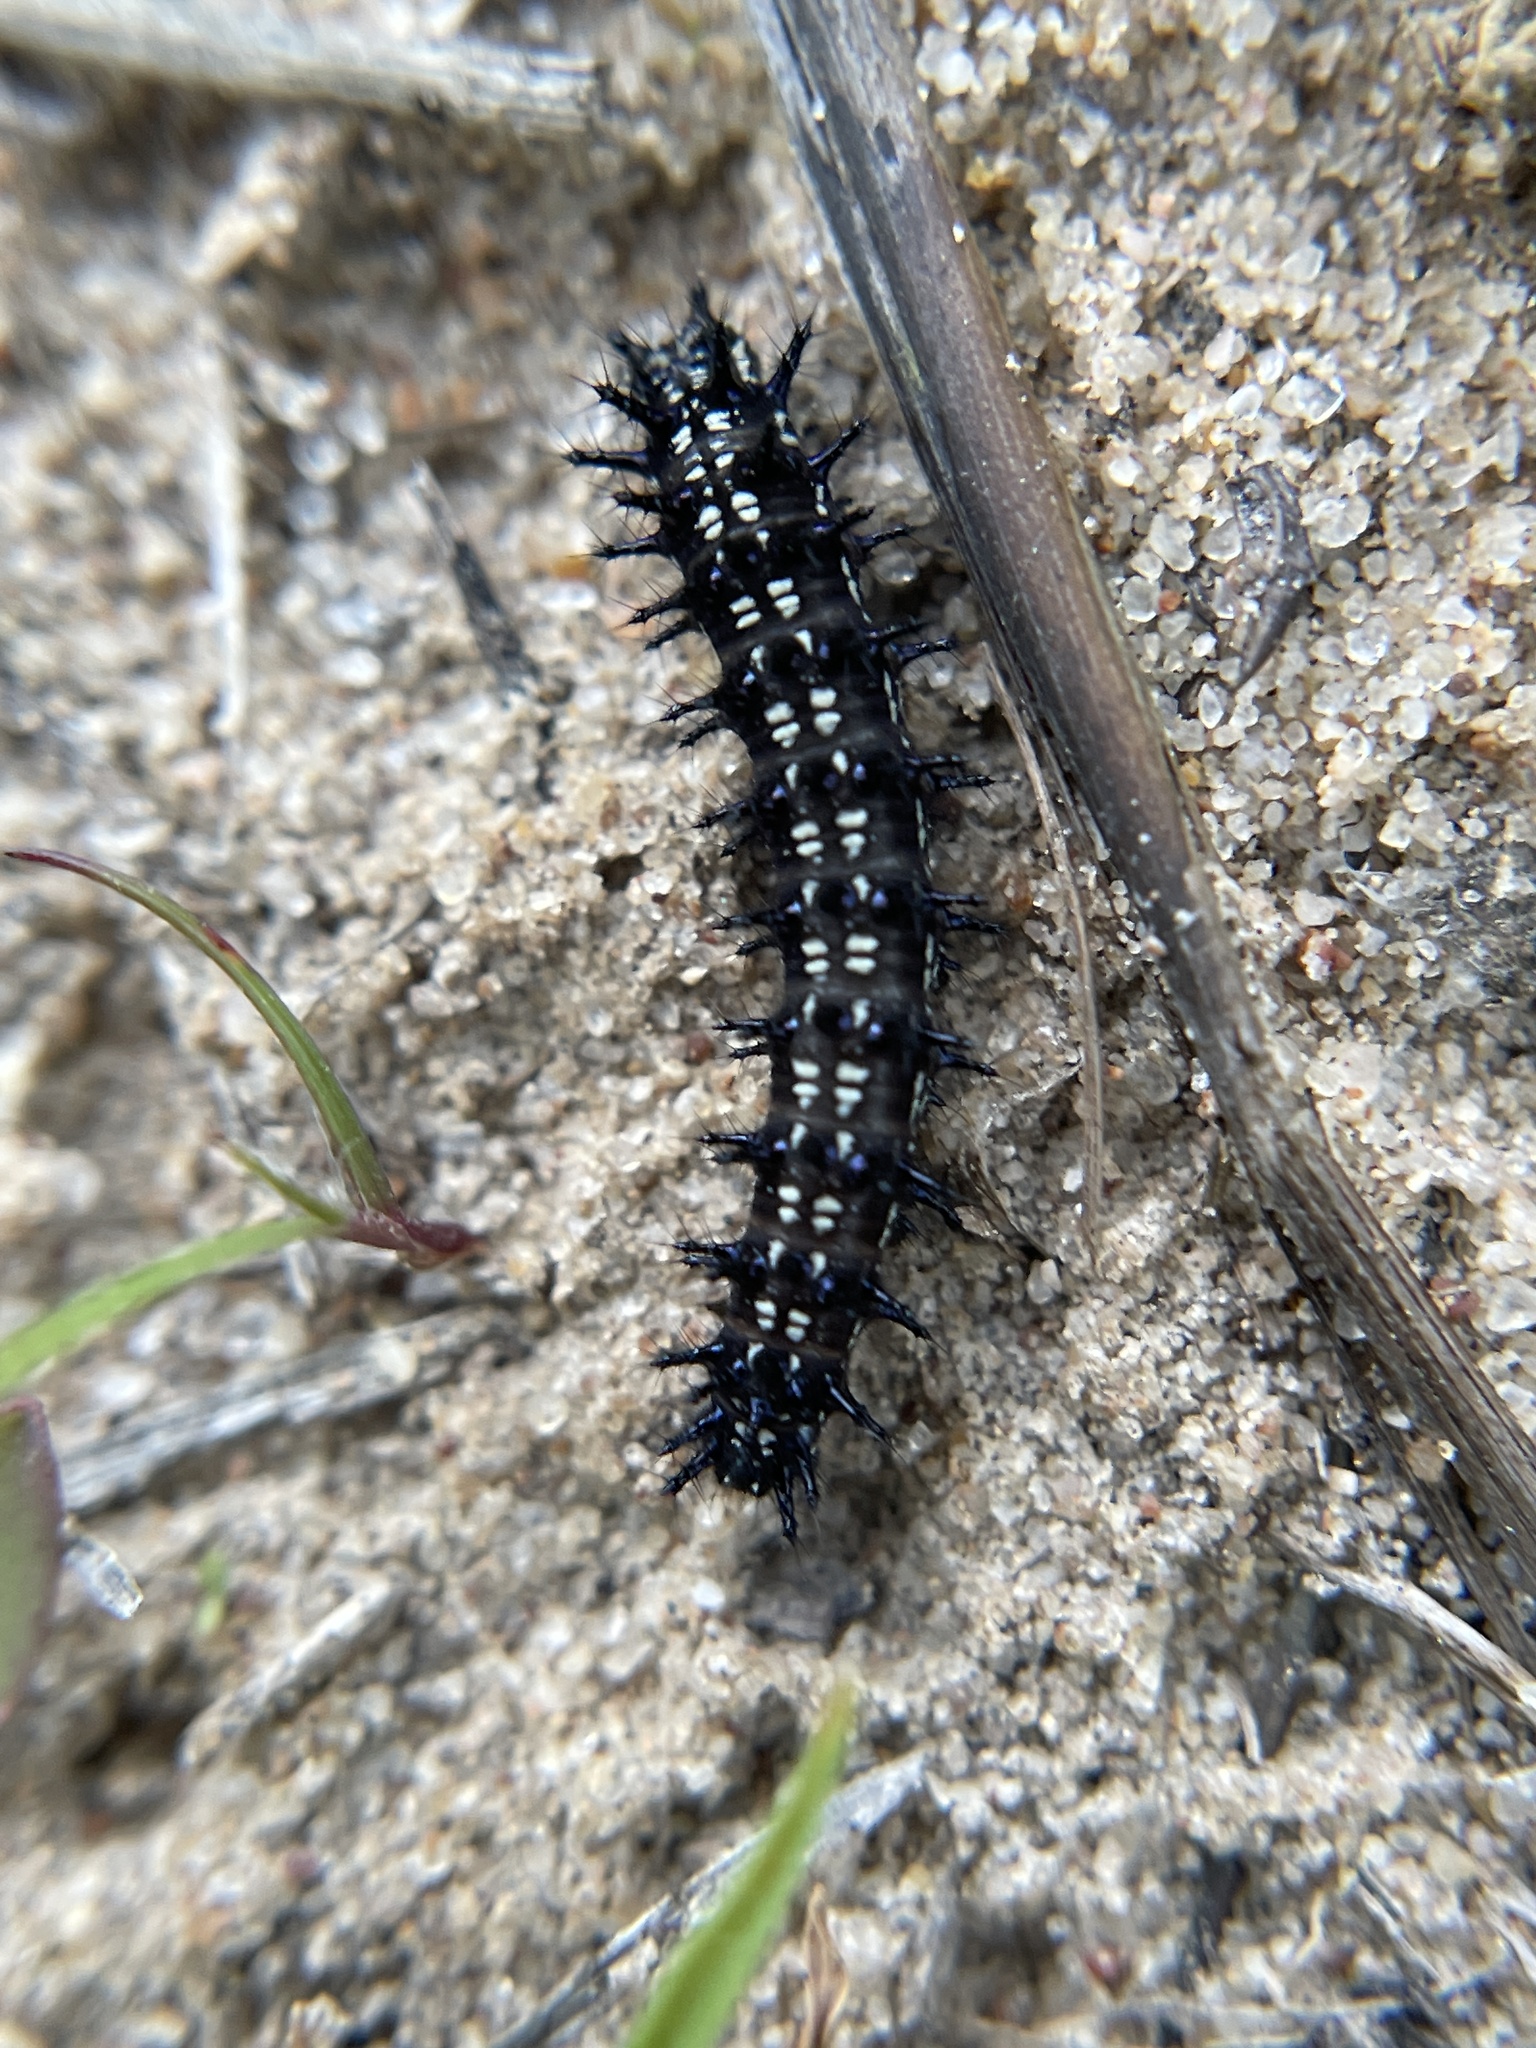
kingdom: Animalia
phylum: Arthropoda
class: Insecta
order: Lepidoptera
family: Nymphalidae
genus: Junonia
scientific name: Junonia coenia
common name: Common buckeye
